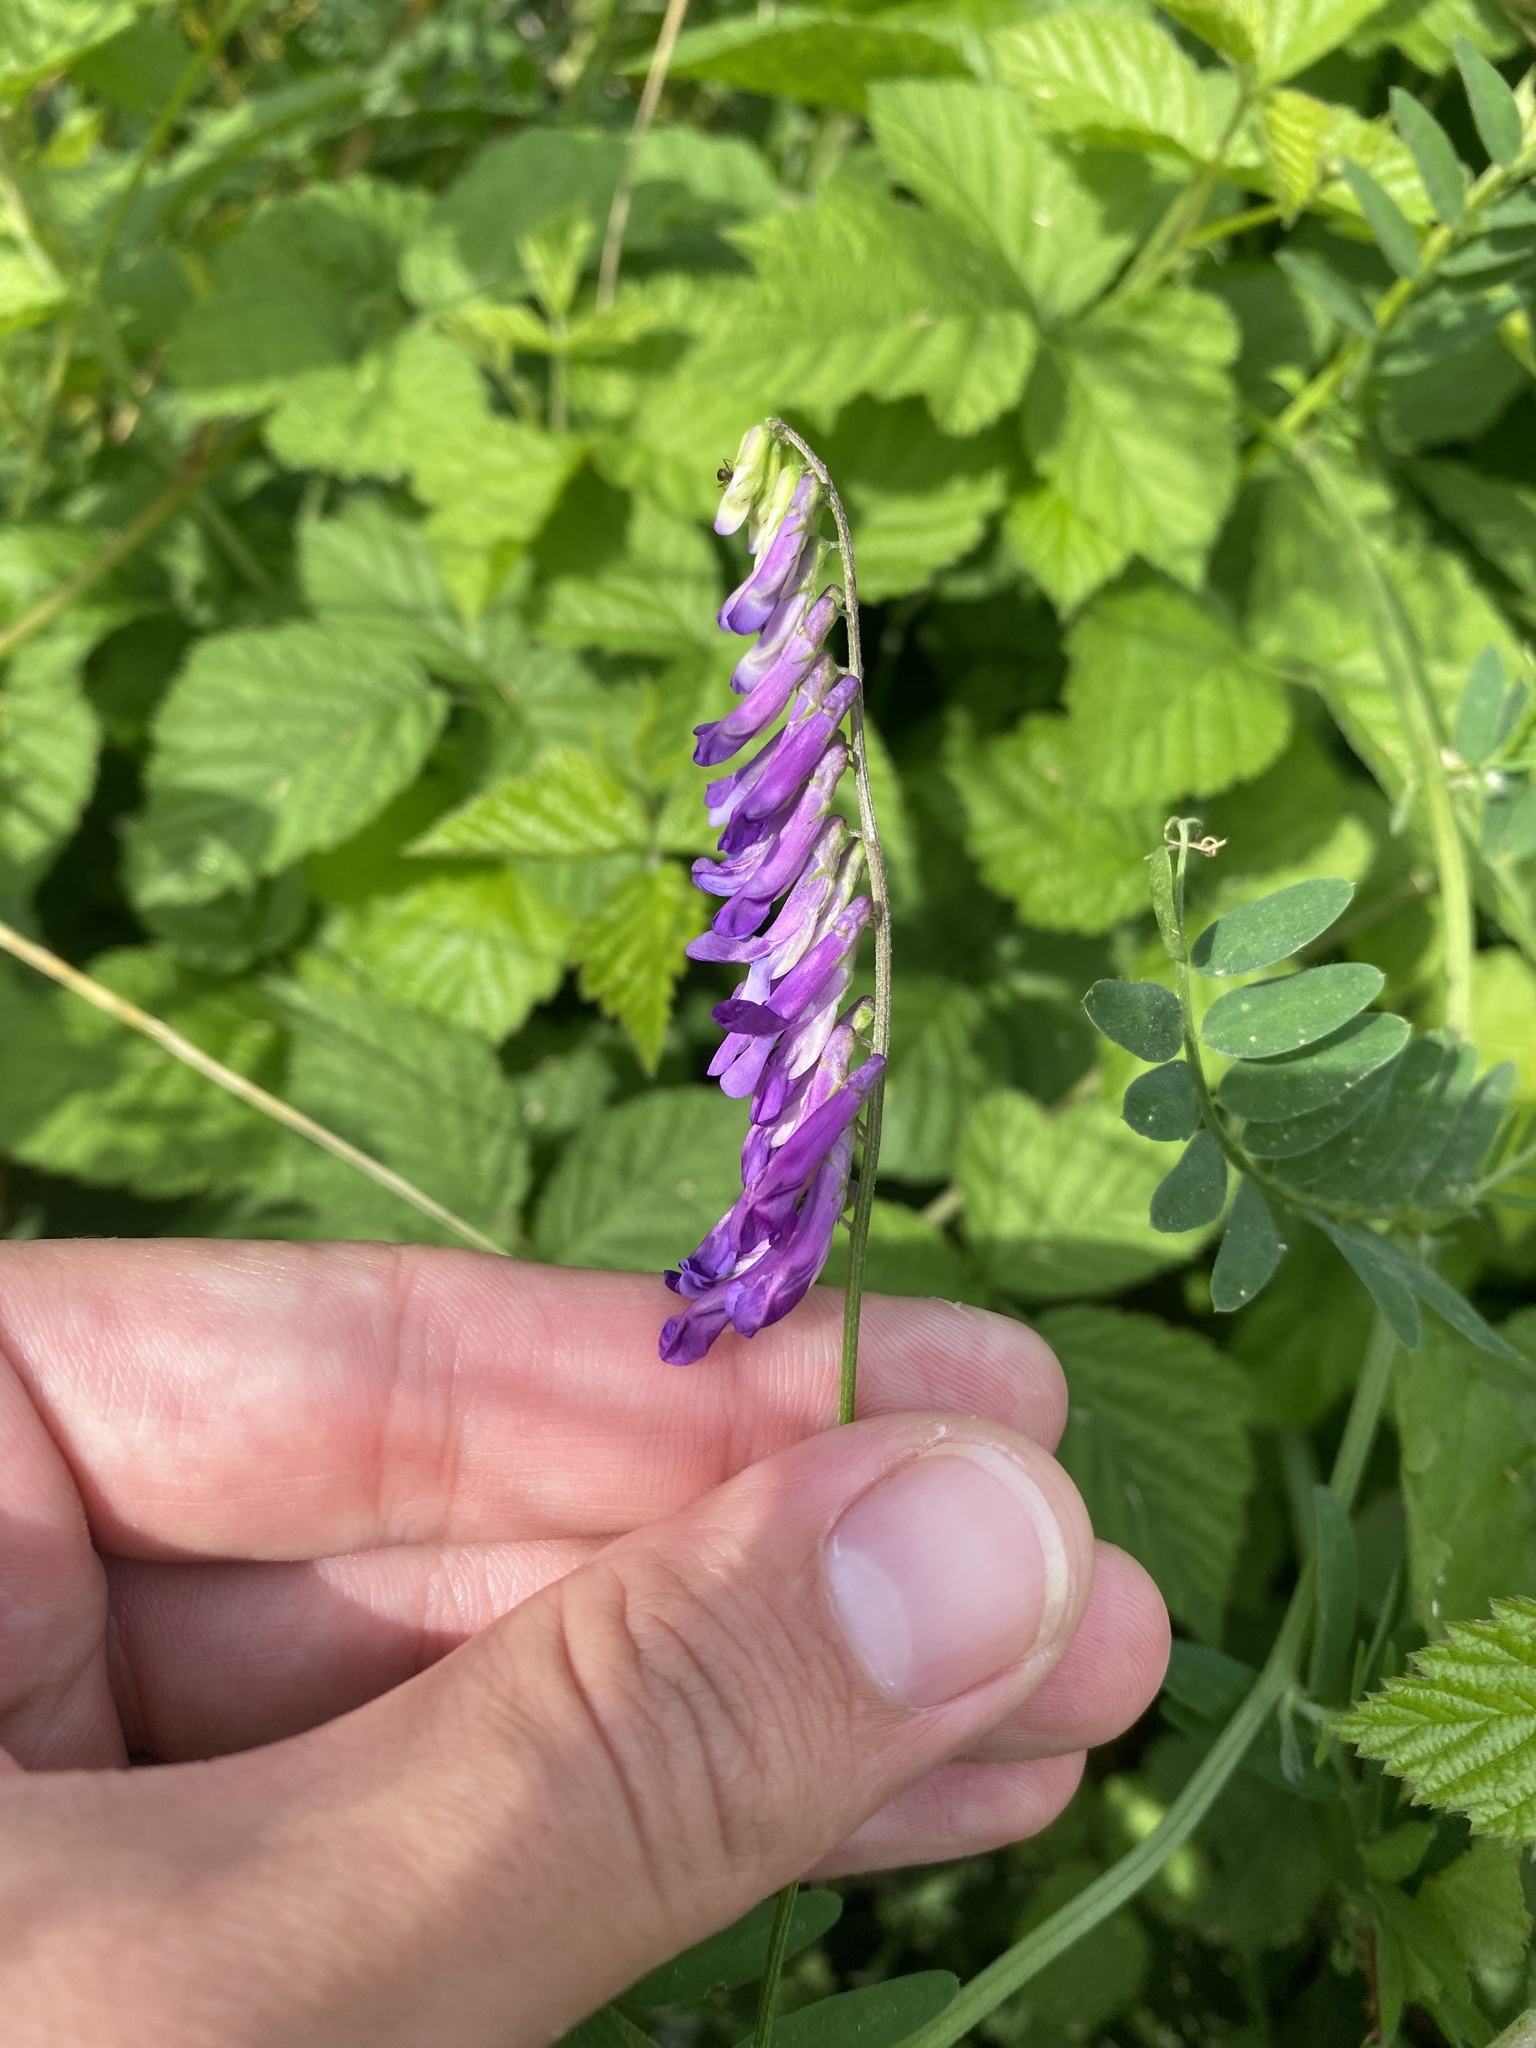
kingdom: Plantae
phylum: Tracheophyta
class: Magnoliopsida
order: Fabales
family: Fabaceae
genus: Vicia
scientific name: Vicia cracca
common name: Bird vetch
